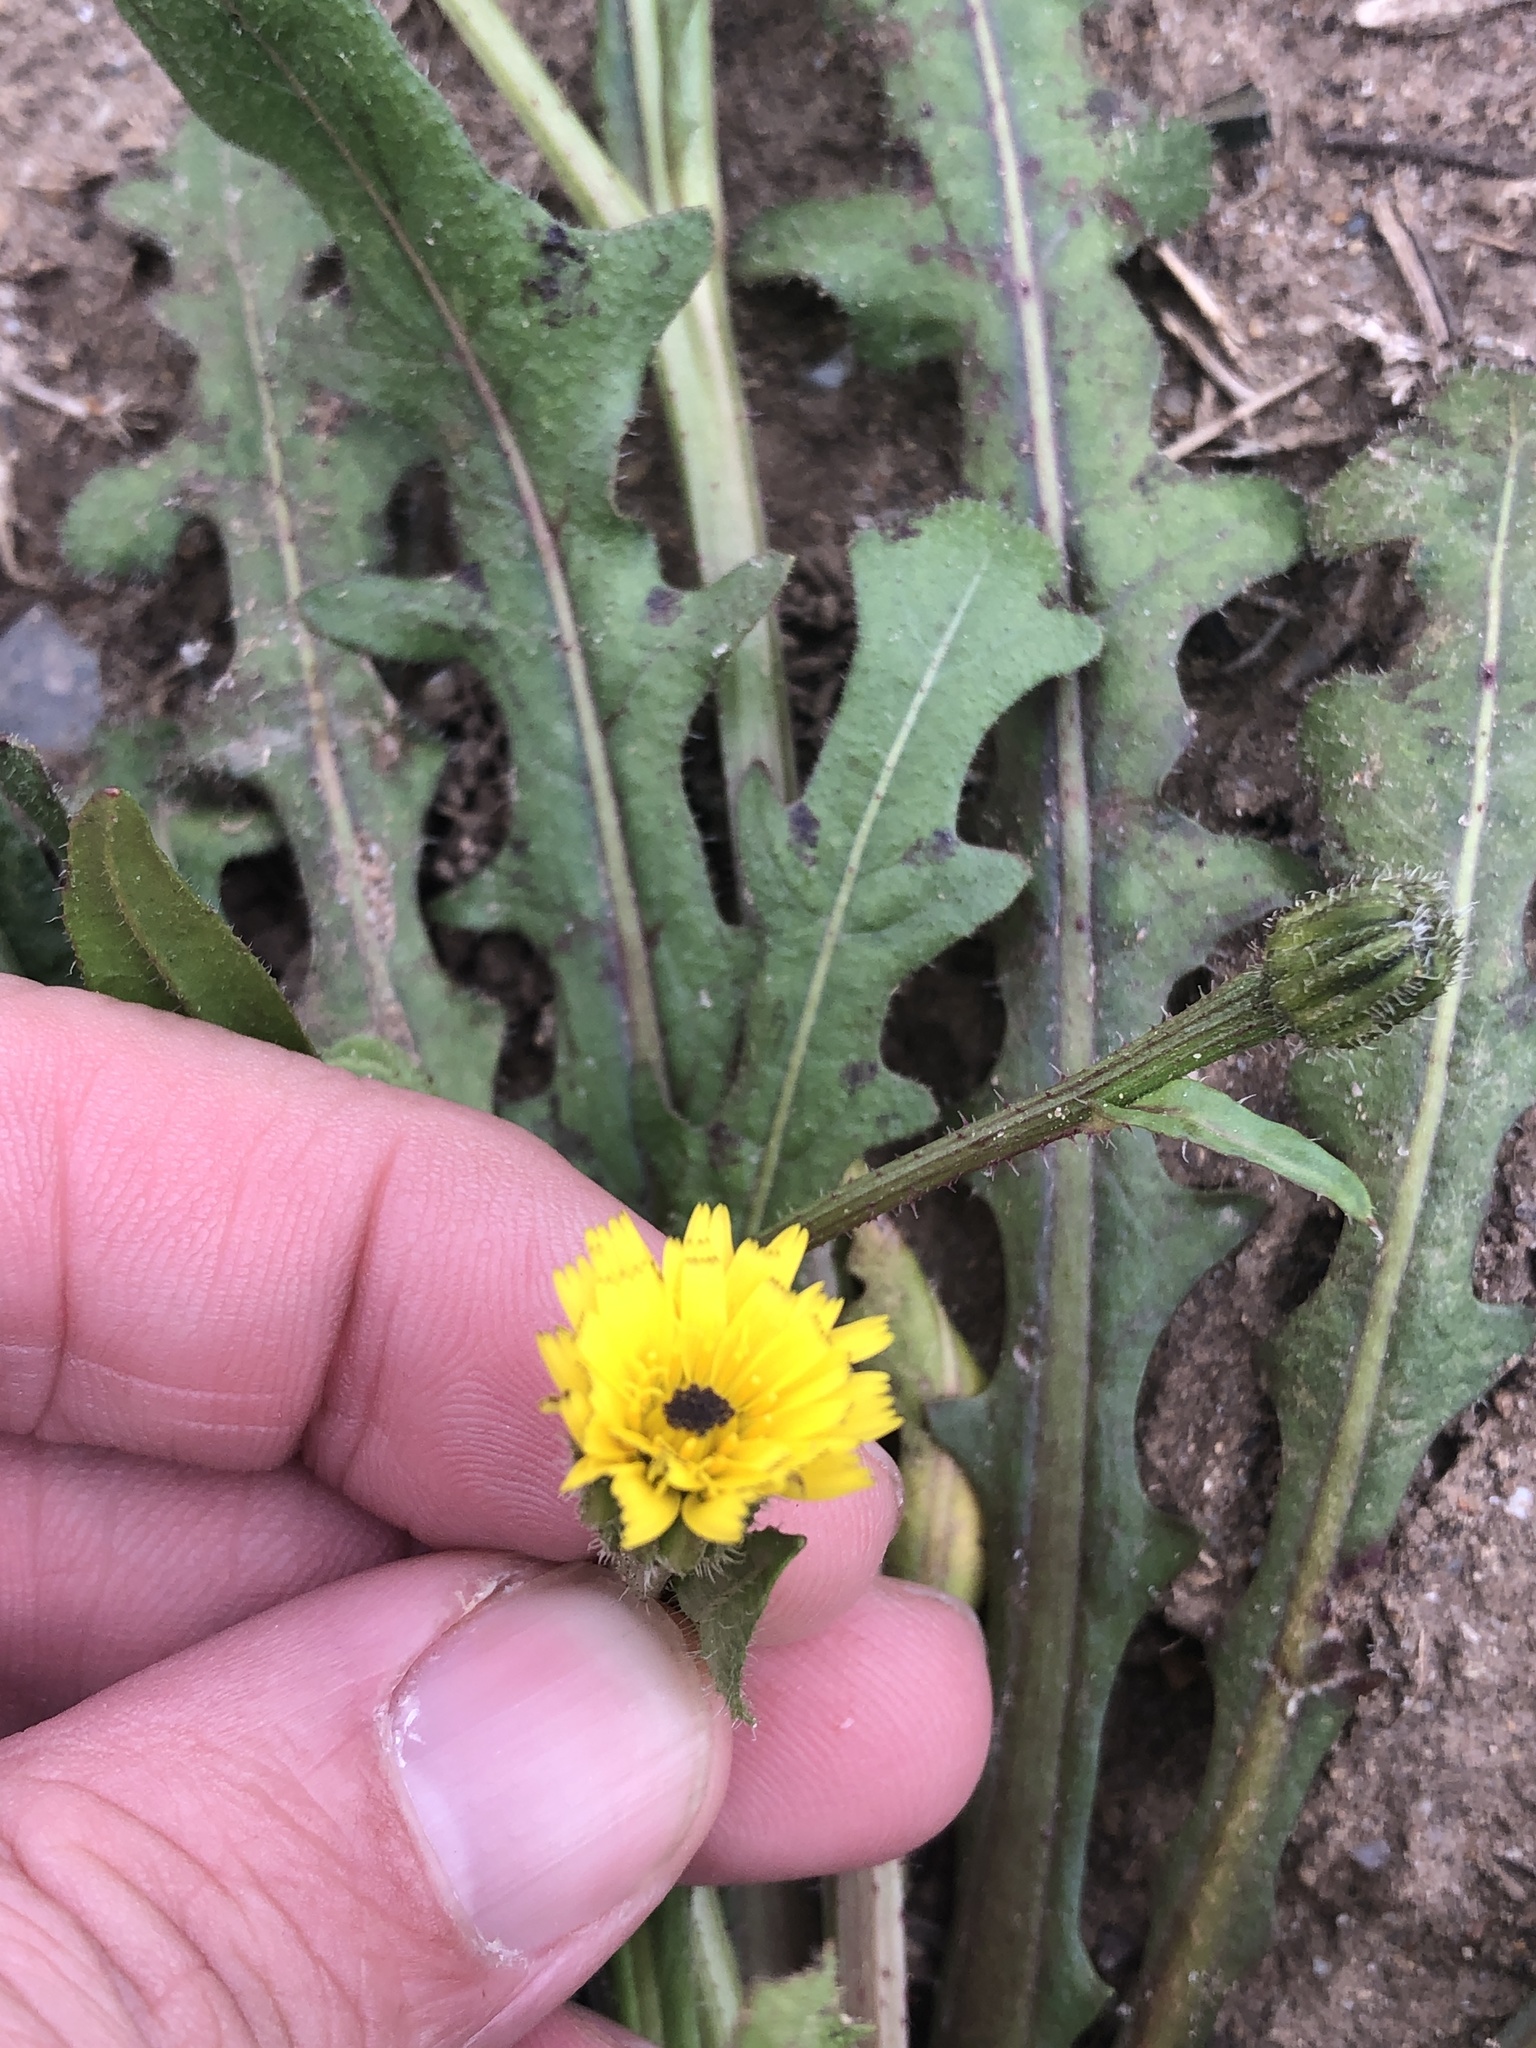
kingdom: Plantae
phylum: Tracheophyta
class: Magnoliopsida
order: Asterales
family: Asteraceae
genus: Hedypnois
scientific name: Hedypnois rhagadioloides
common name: Cretan weed
